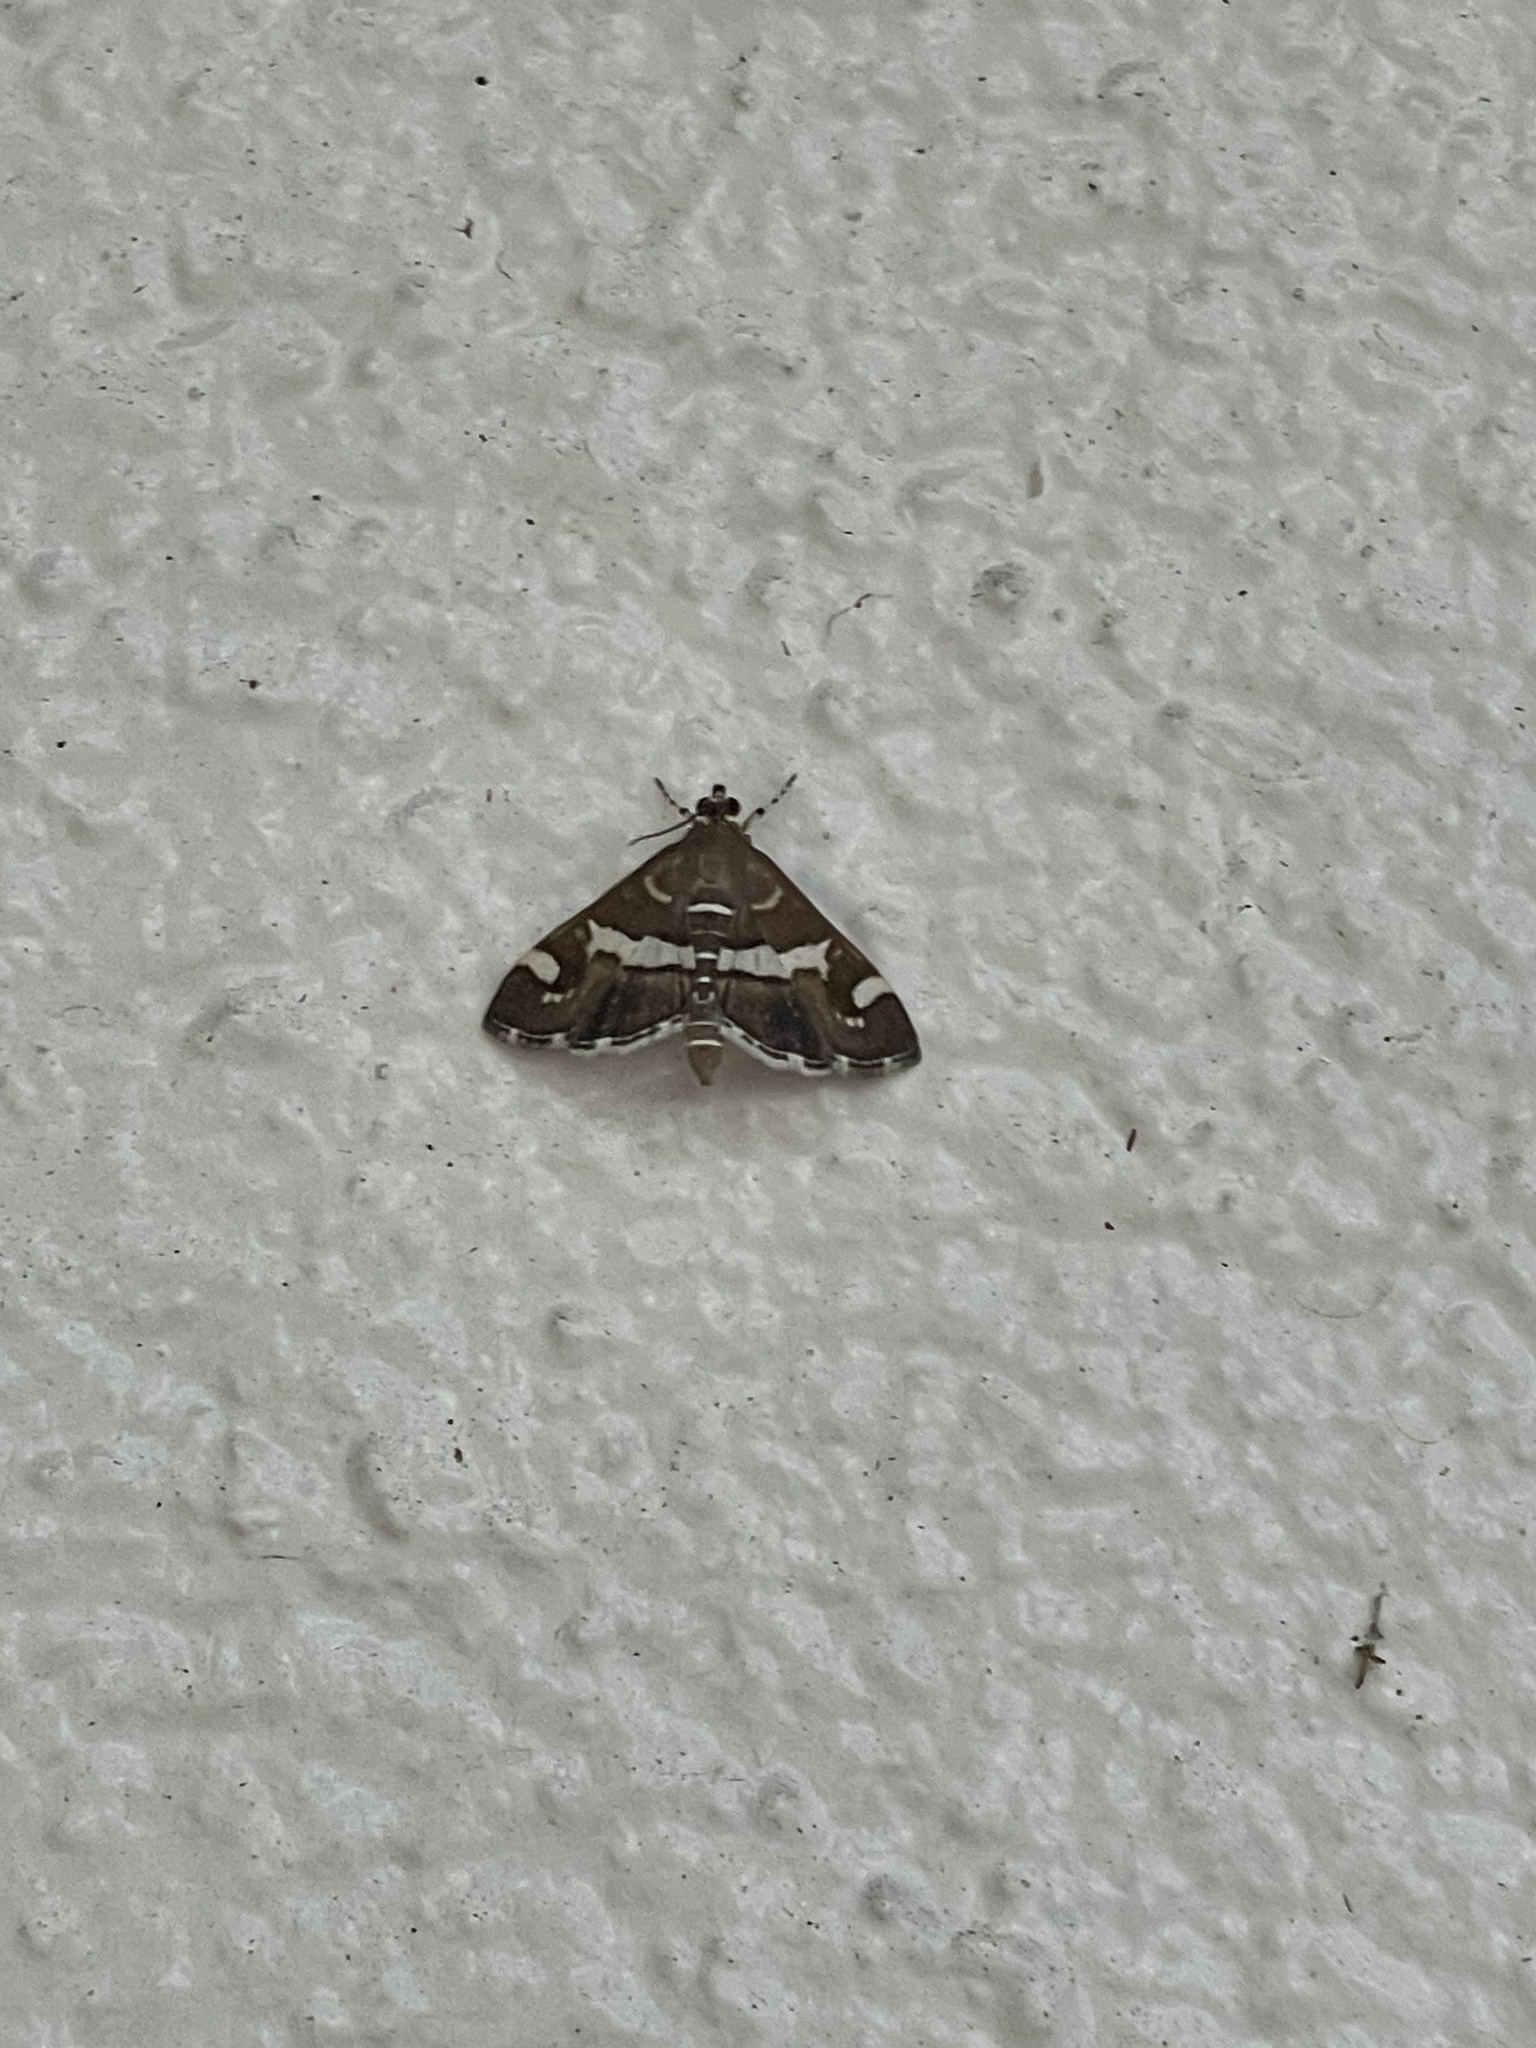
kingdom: Animalia
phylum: Arthropoda
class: Insecta
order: Lepidoptera
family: Crambidae
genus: Spoladea
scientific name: Spoladea recurvalis
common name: Beet webworm moth
